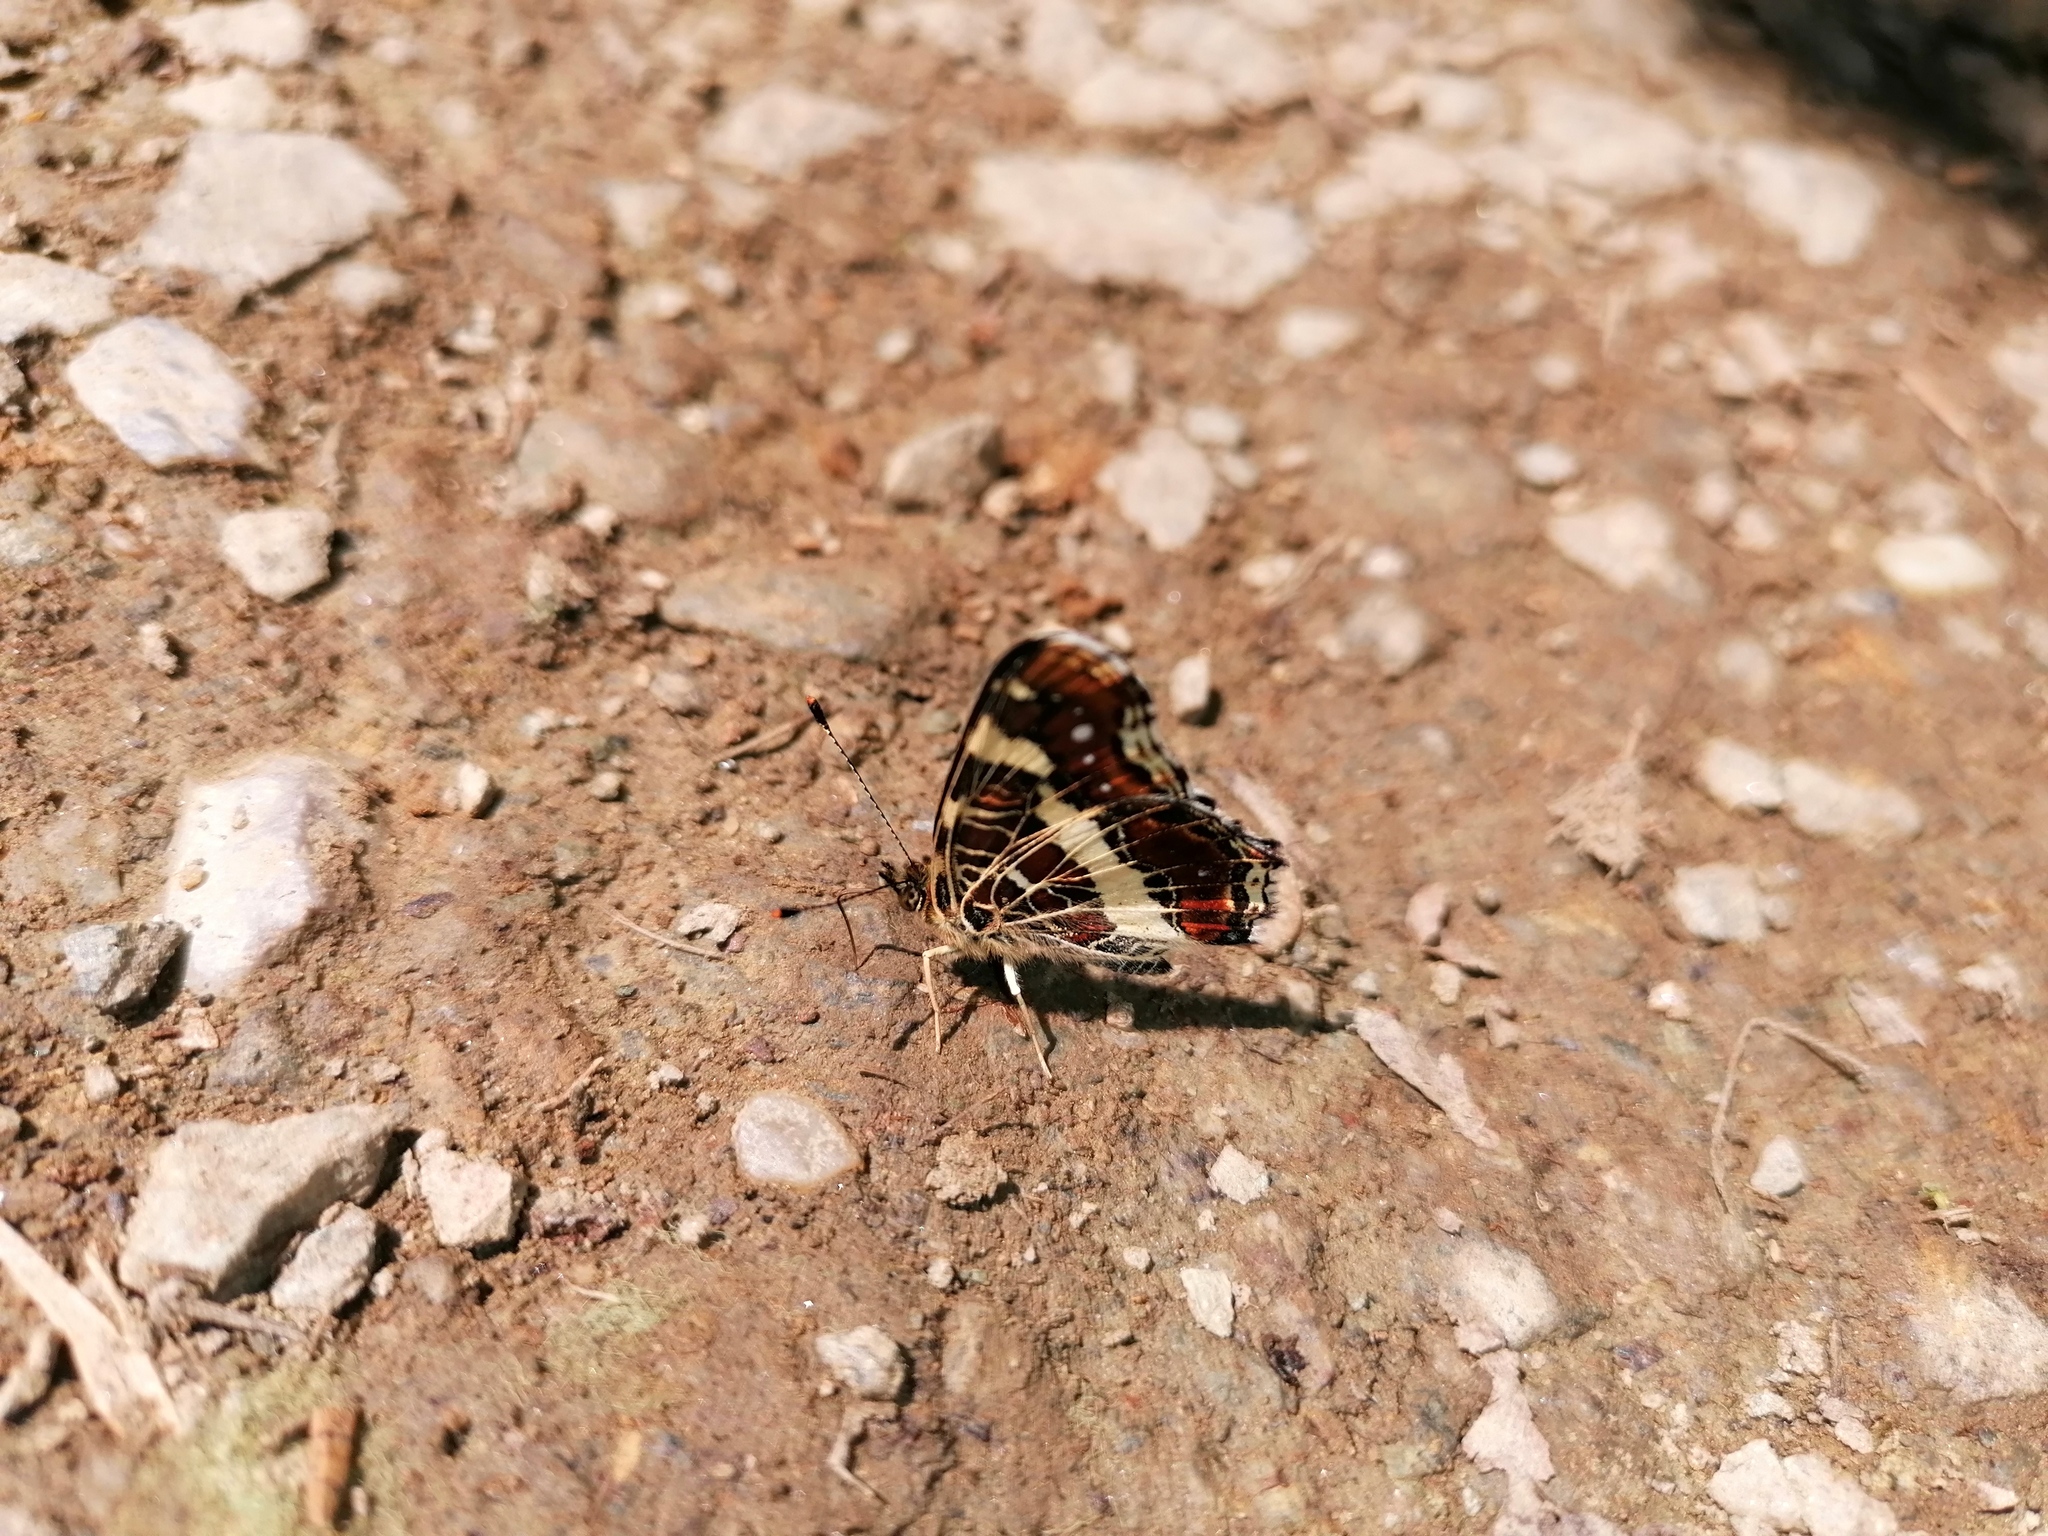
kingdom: Animalia
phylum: Arthropoda
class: Insecta
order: Lepidoptera
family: Nymphalidae
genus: Araschnia
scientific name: Araschnia levana
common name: Map butterfly
